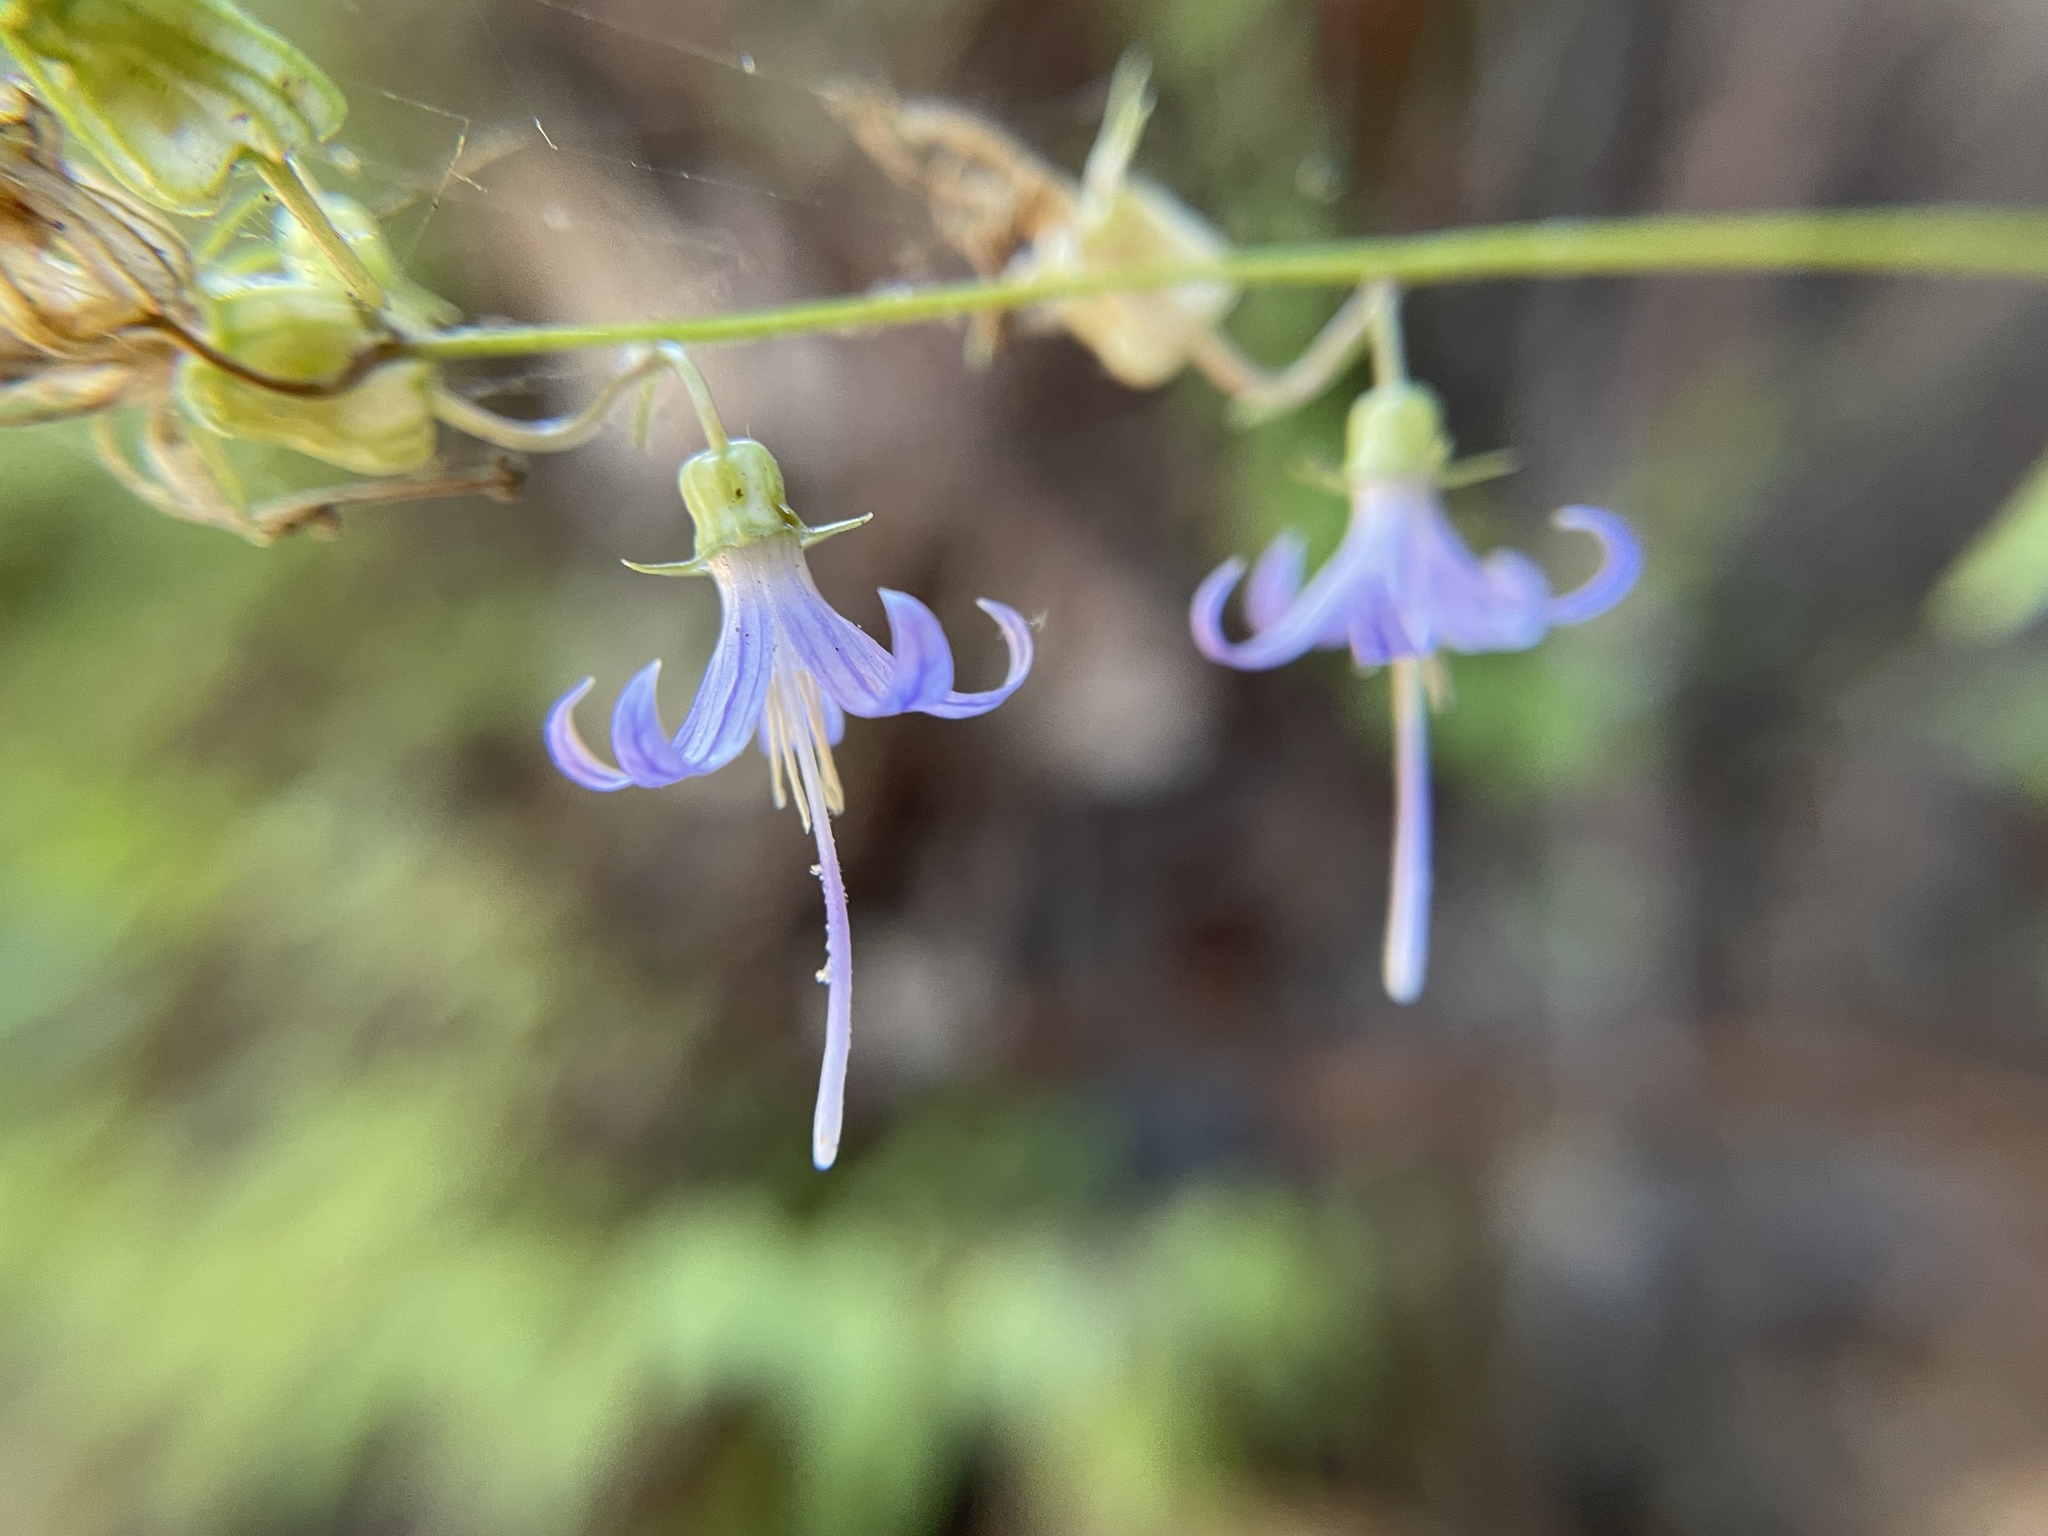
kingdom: Plantae
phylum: Tracheophyta
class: Magnoliopsida
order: Asterales
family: Campanulaceae
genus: Smithiastrum
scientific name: Smithiastrum prenanthoides
